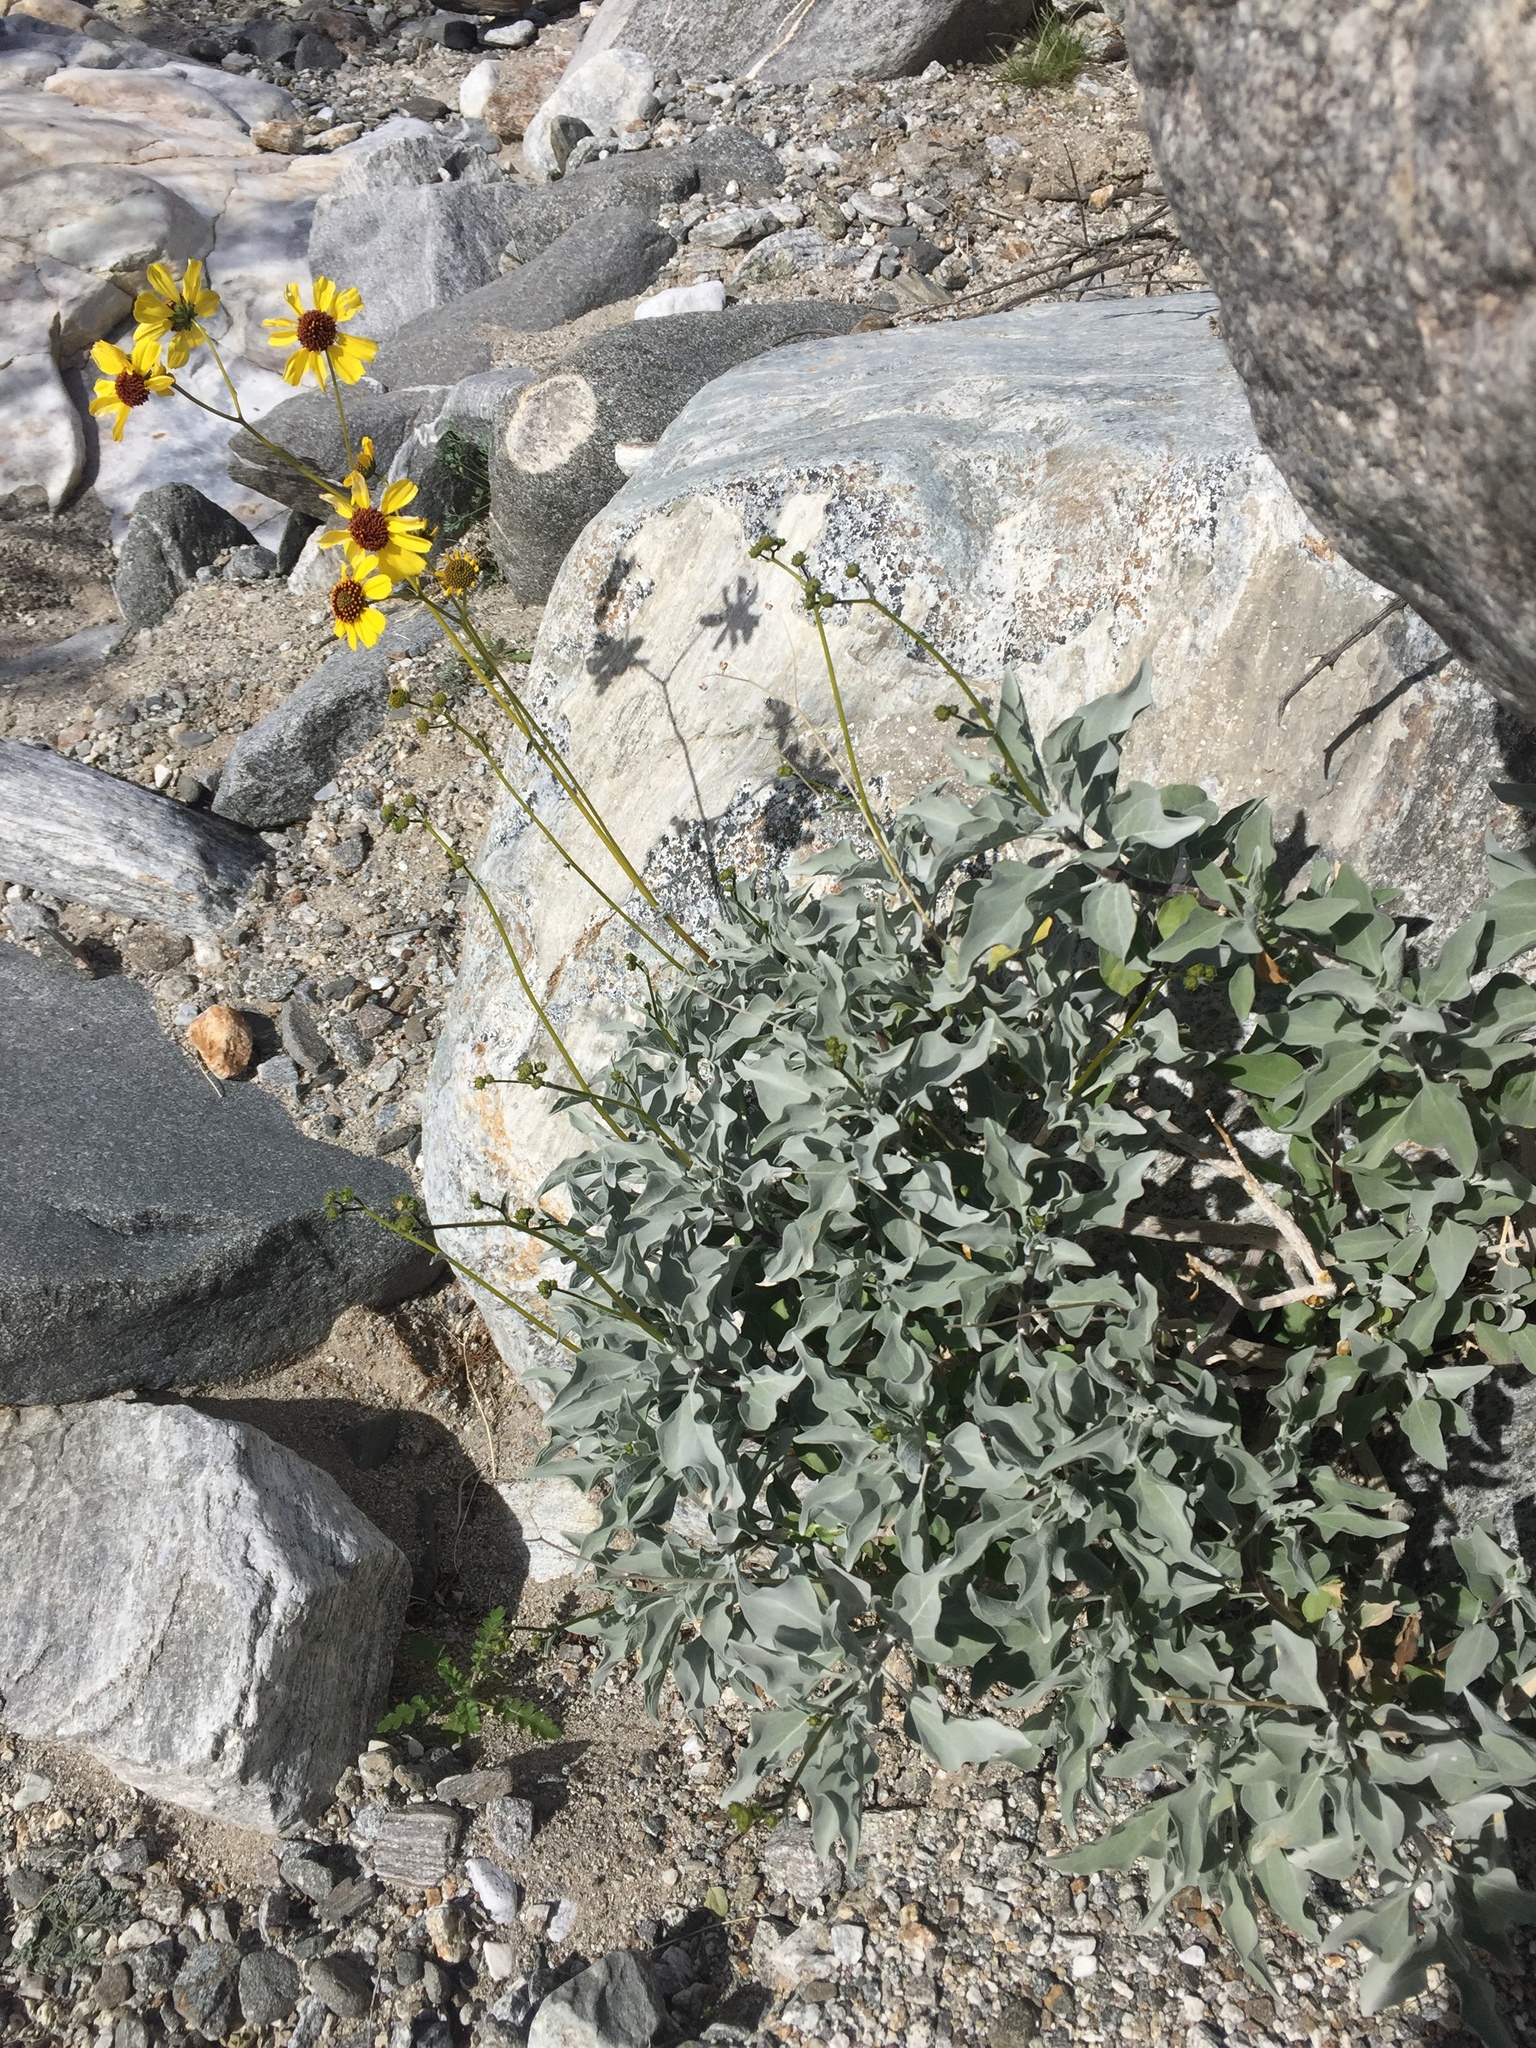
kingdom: Plantae
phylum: Tracheophyta
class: Magnoliopsida
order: Asterales
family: Asteraceae
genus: Encelia
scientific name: Encelia farinosa
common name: Brittlebush
